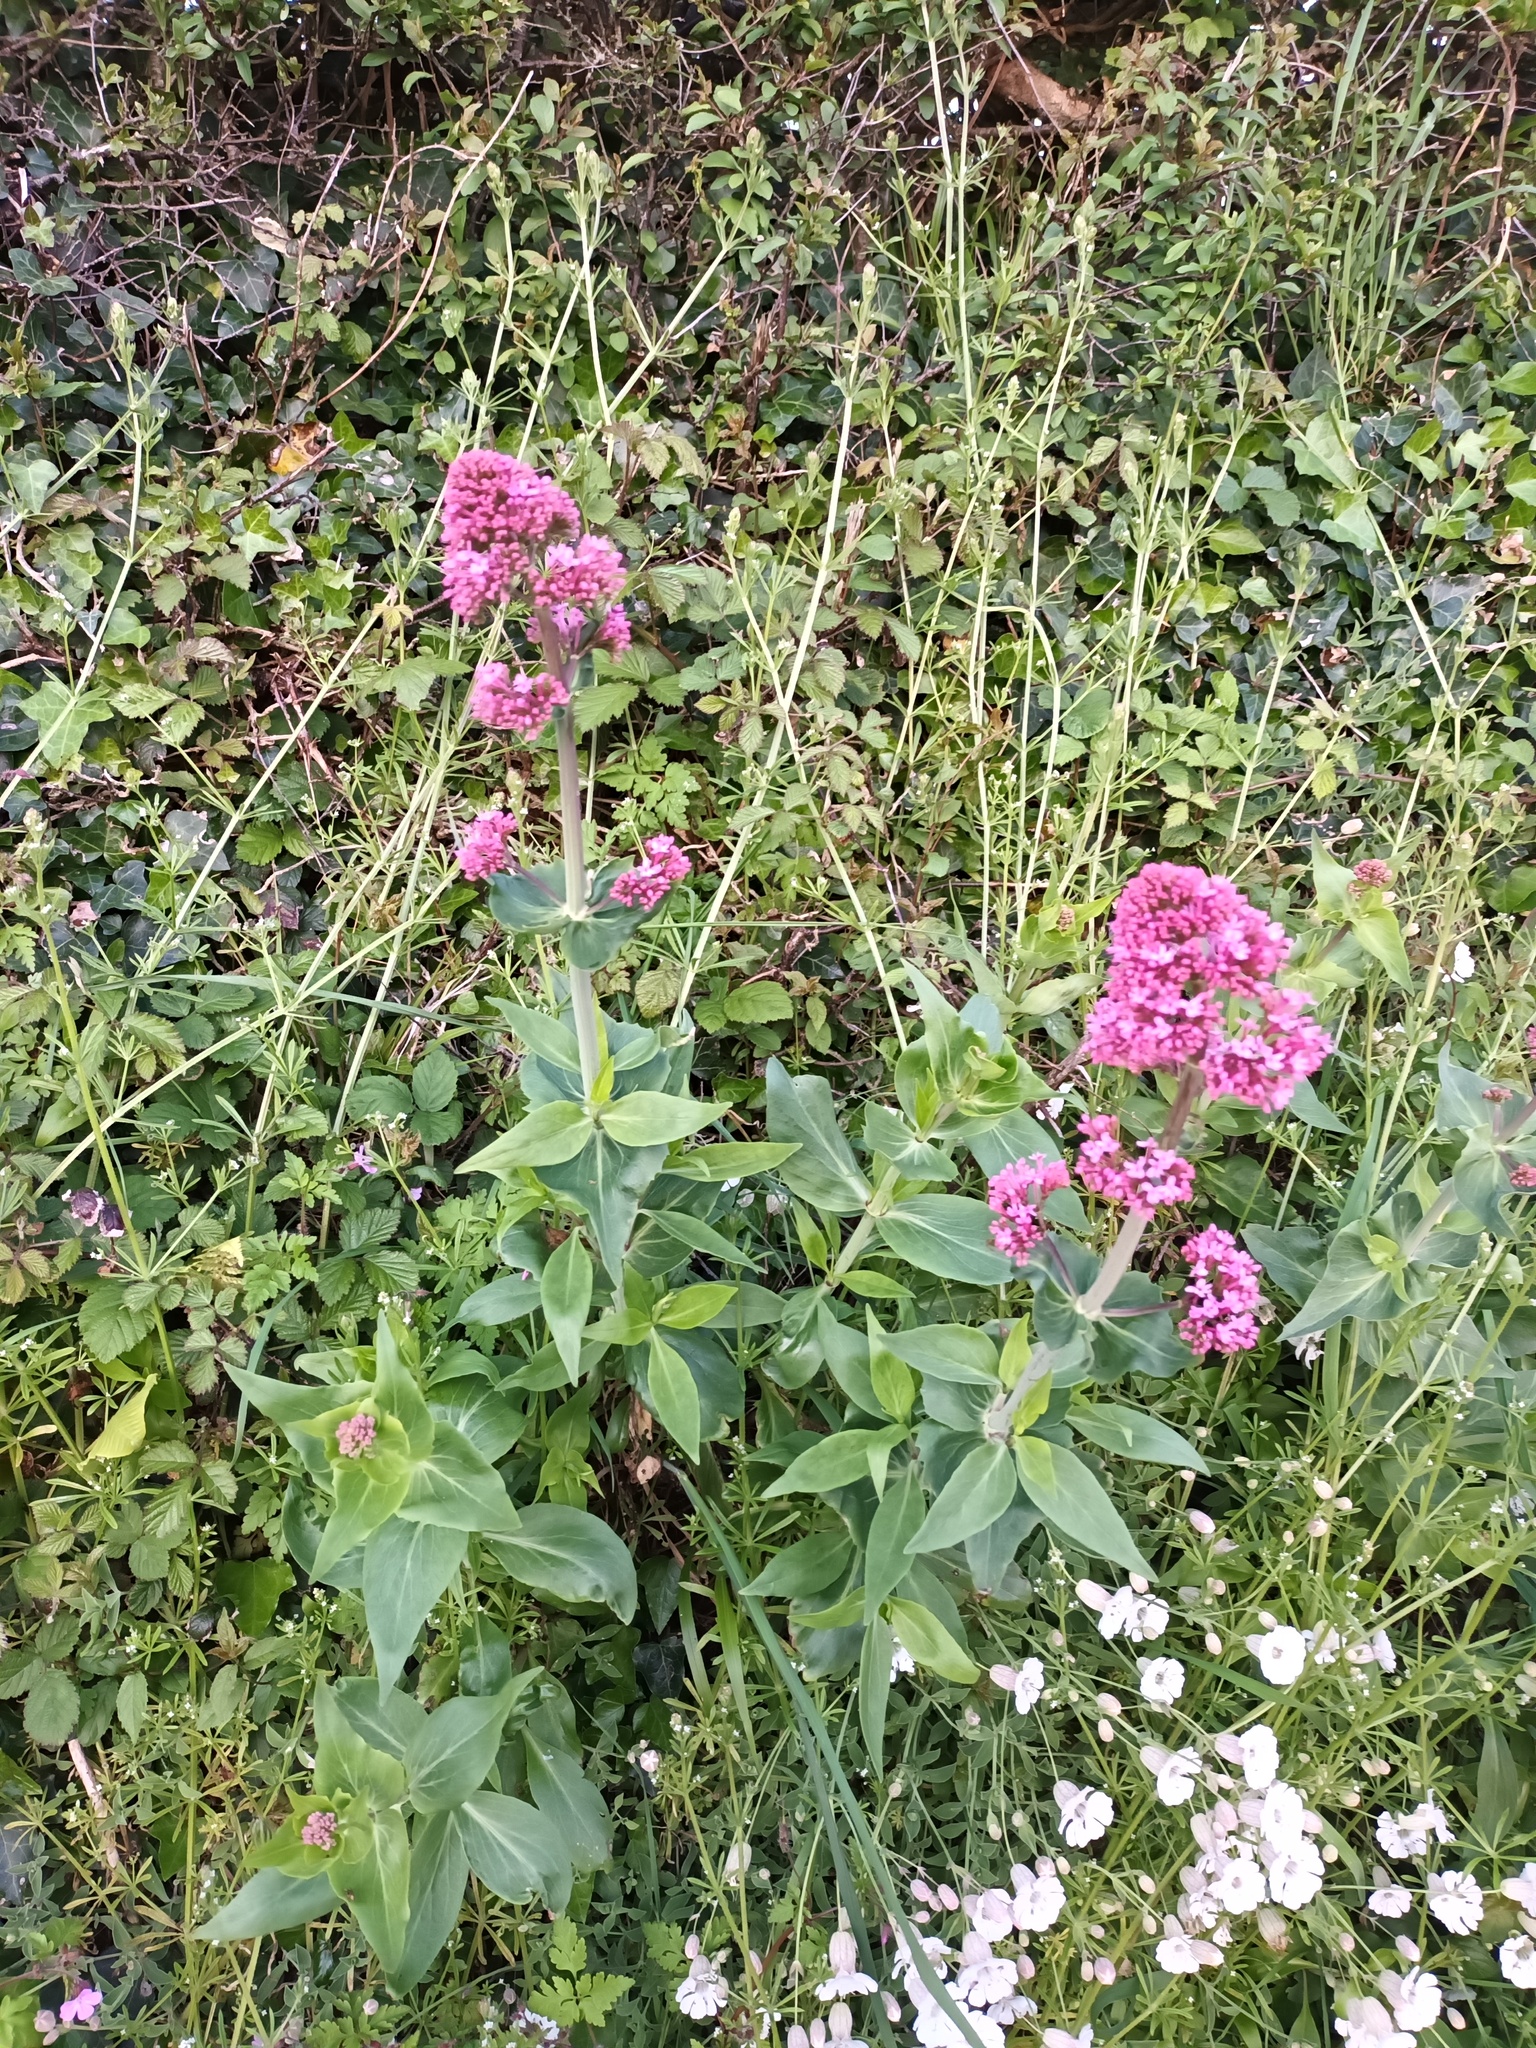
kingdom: Plantae
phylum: Tracheophyta
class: Magnoliopsida
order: Dipsacales
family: Caprifoliaceae
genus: Centranthus
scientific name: Centranthus ruber
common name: Red valerian
